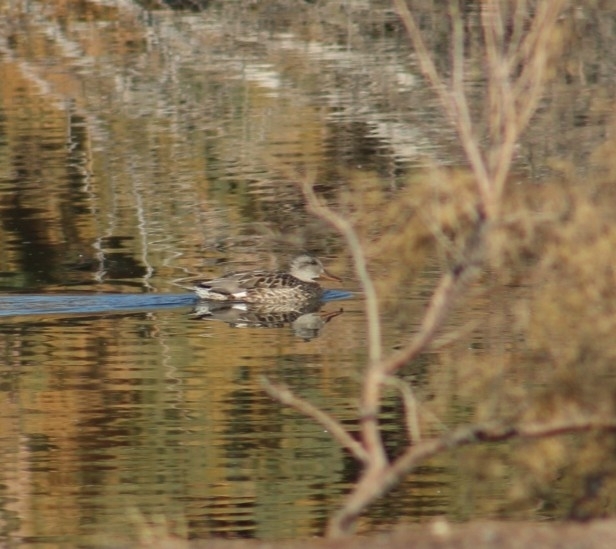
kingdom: Animalia
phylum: Chordata
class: Aves
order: Anseriformes
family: Anatidae
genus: Mareca
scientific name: Mareca strepera
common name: Gadwall
